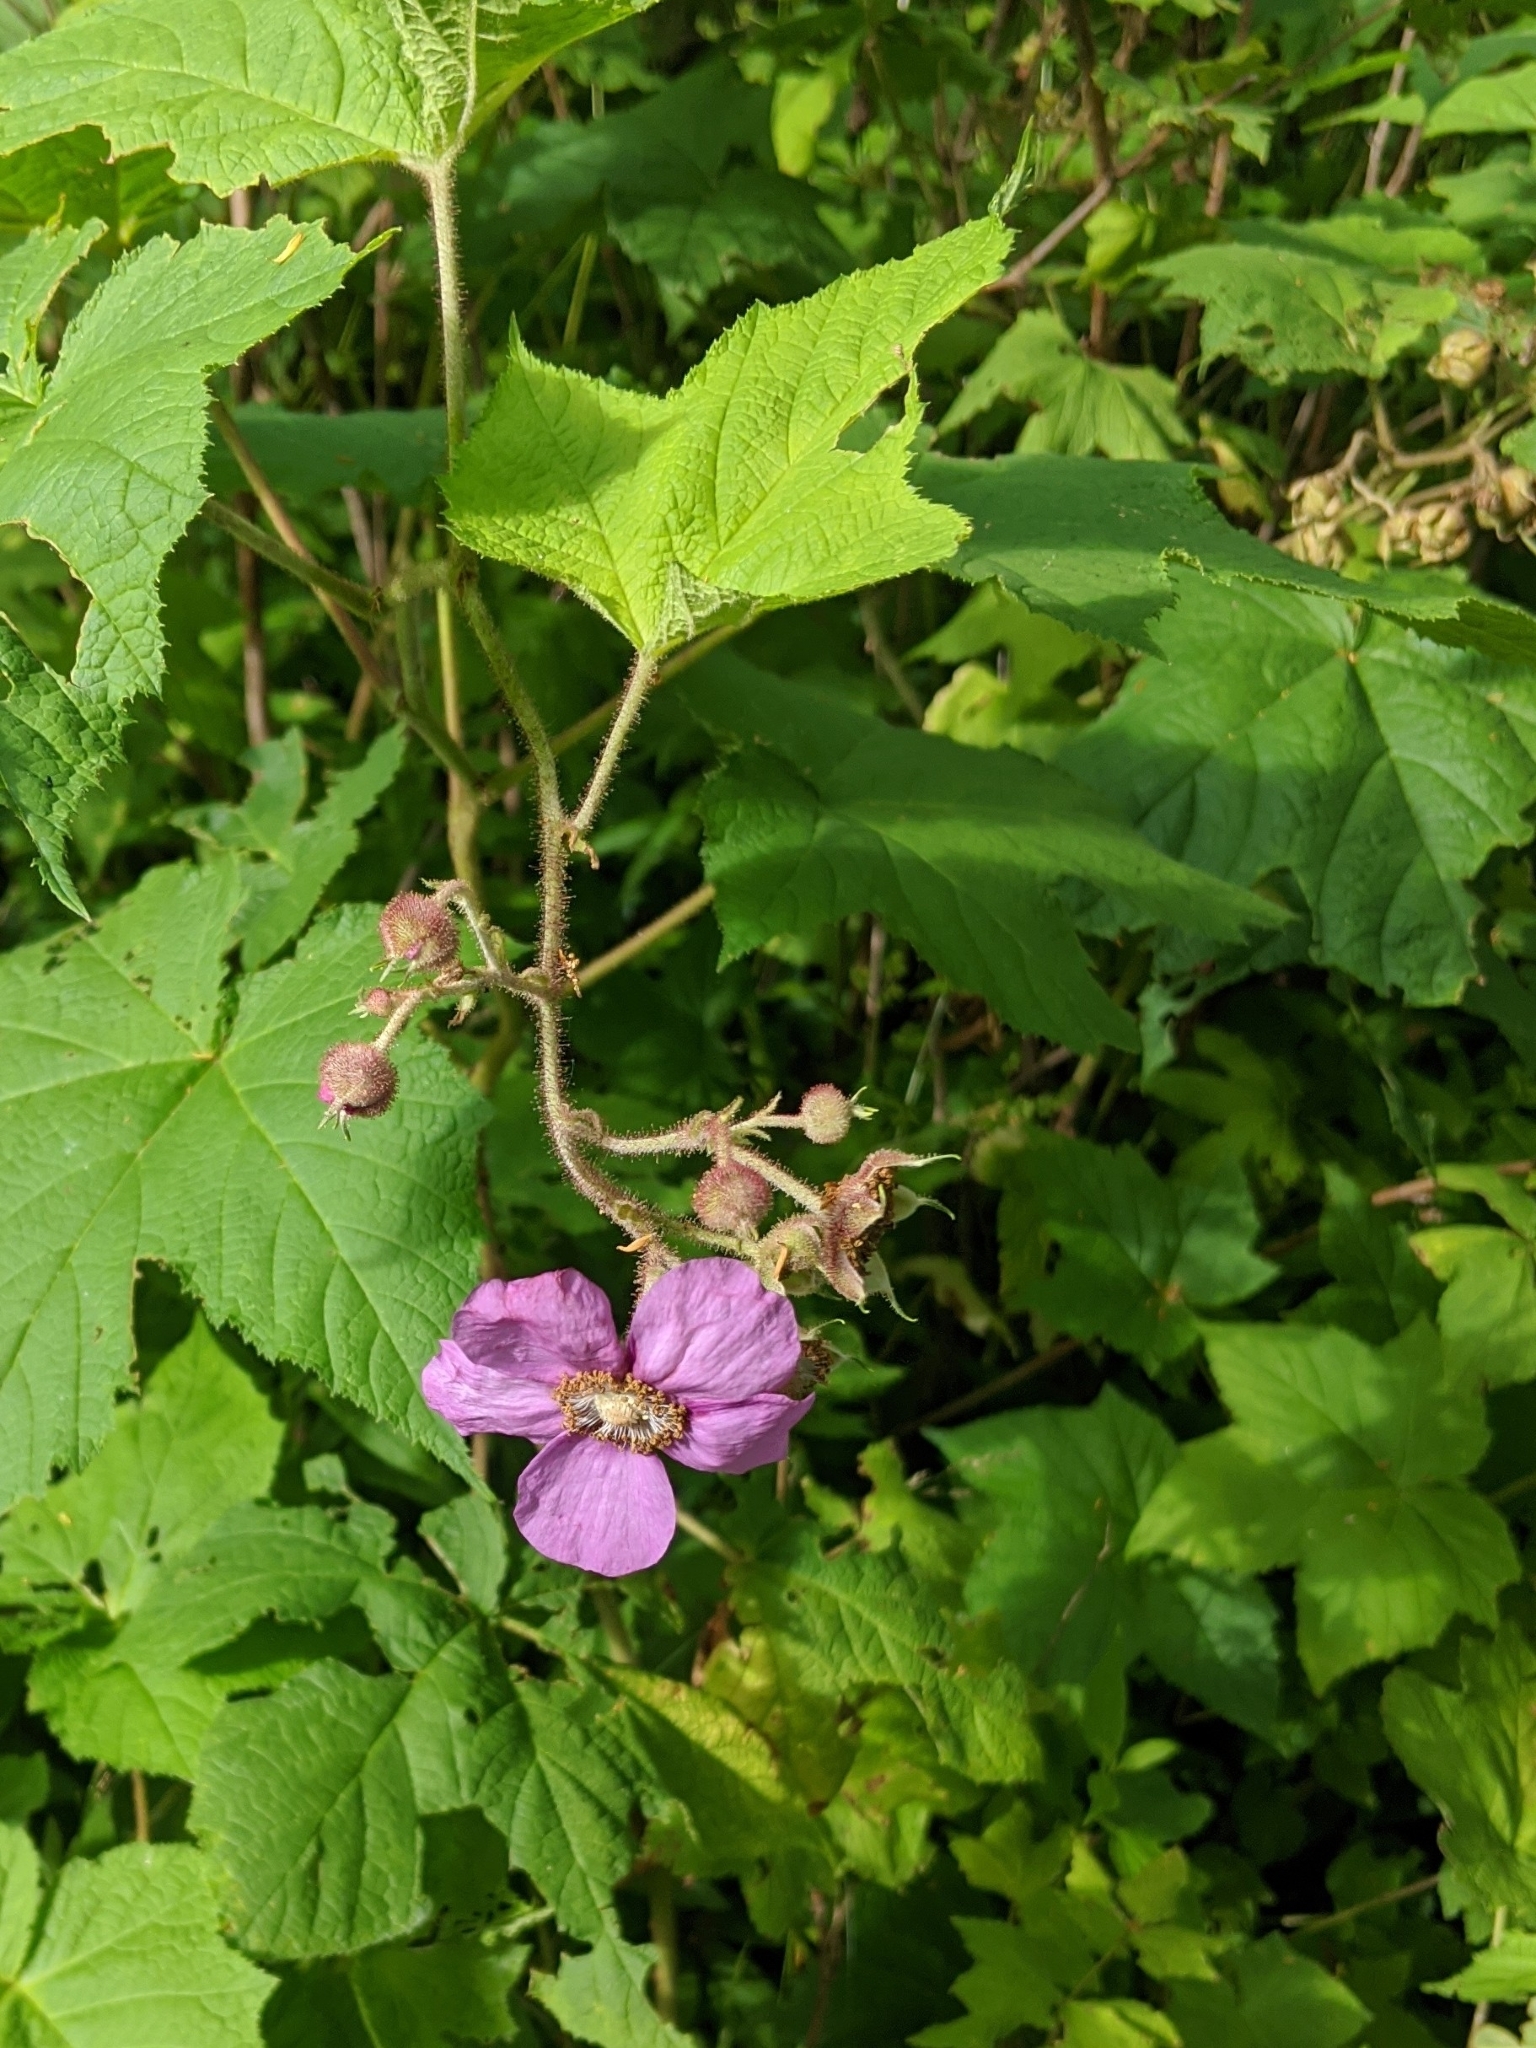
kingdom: Plantae
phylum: Tracheophyta
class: Magnoliopsida
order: Rosales
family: Rosaceae
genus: Rubus
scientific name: Rubus odoratus
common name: Purple-flowered raspberry
